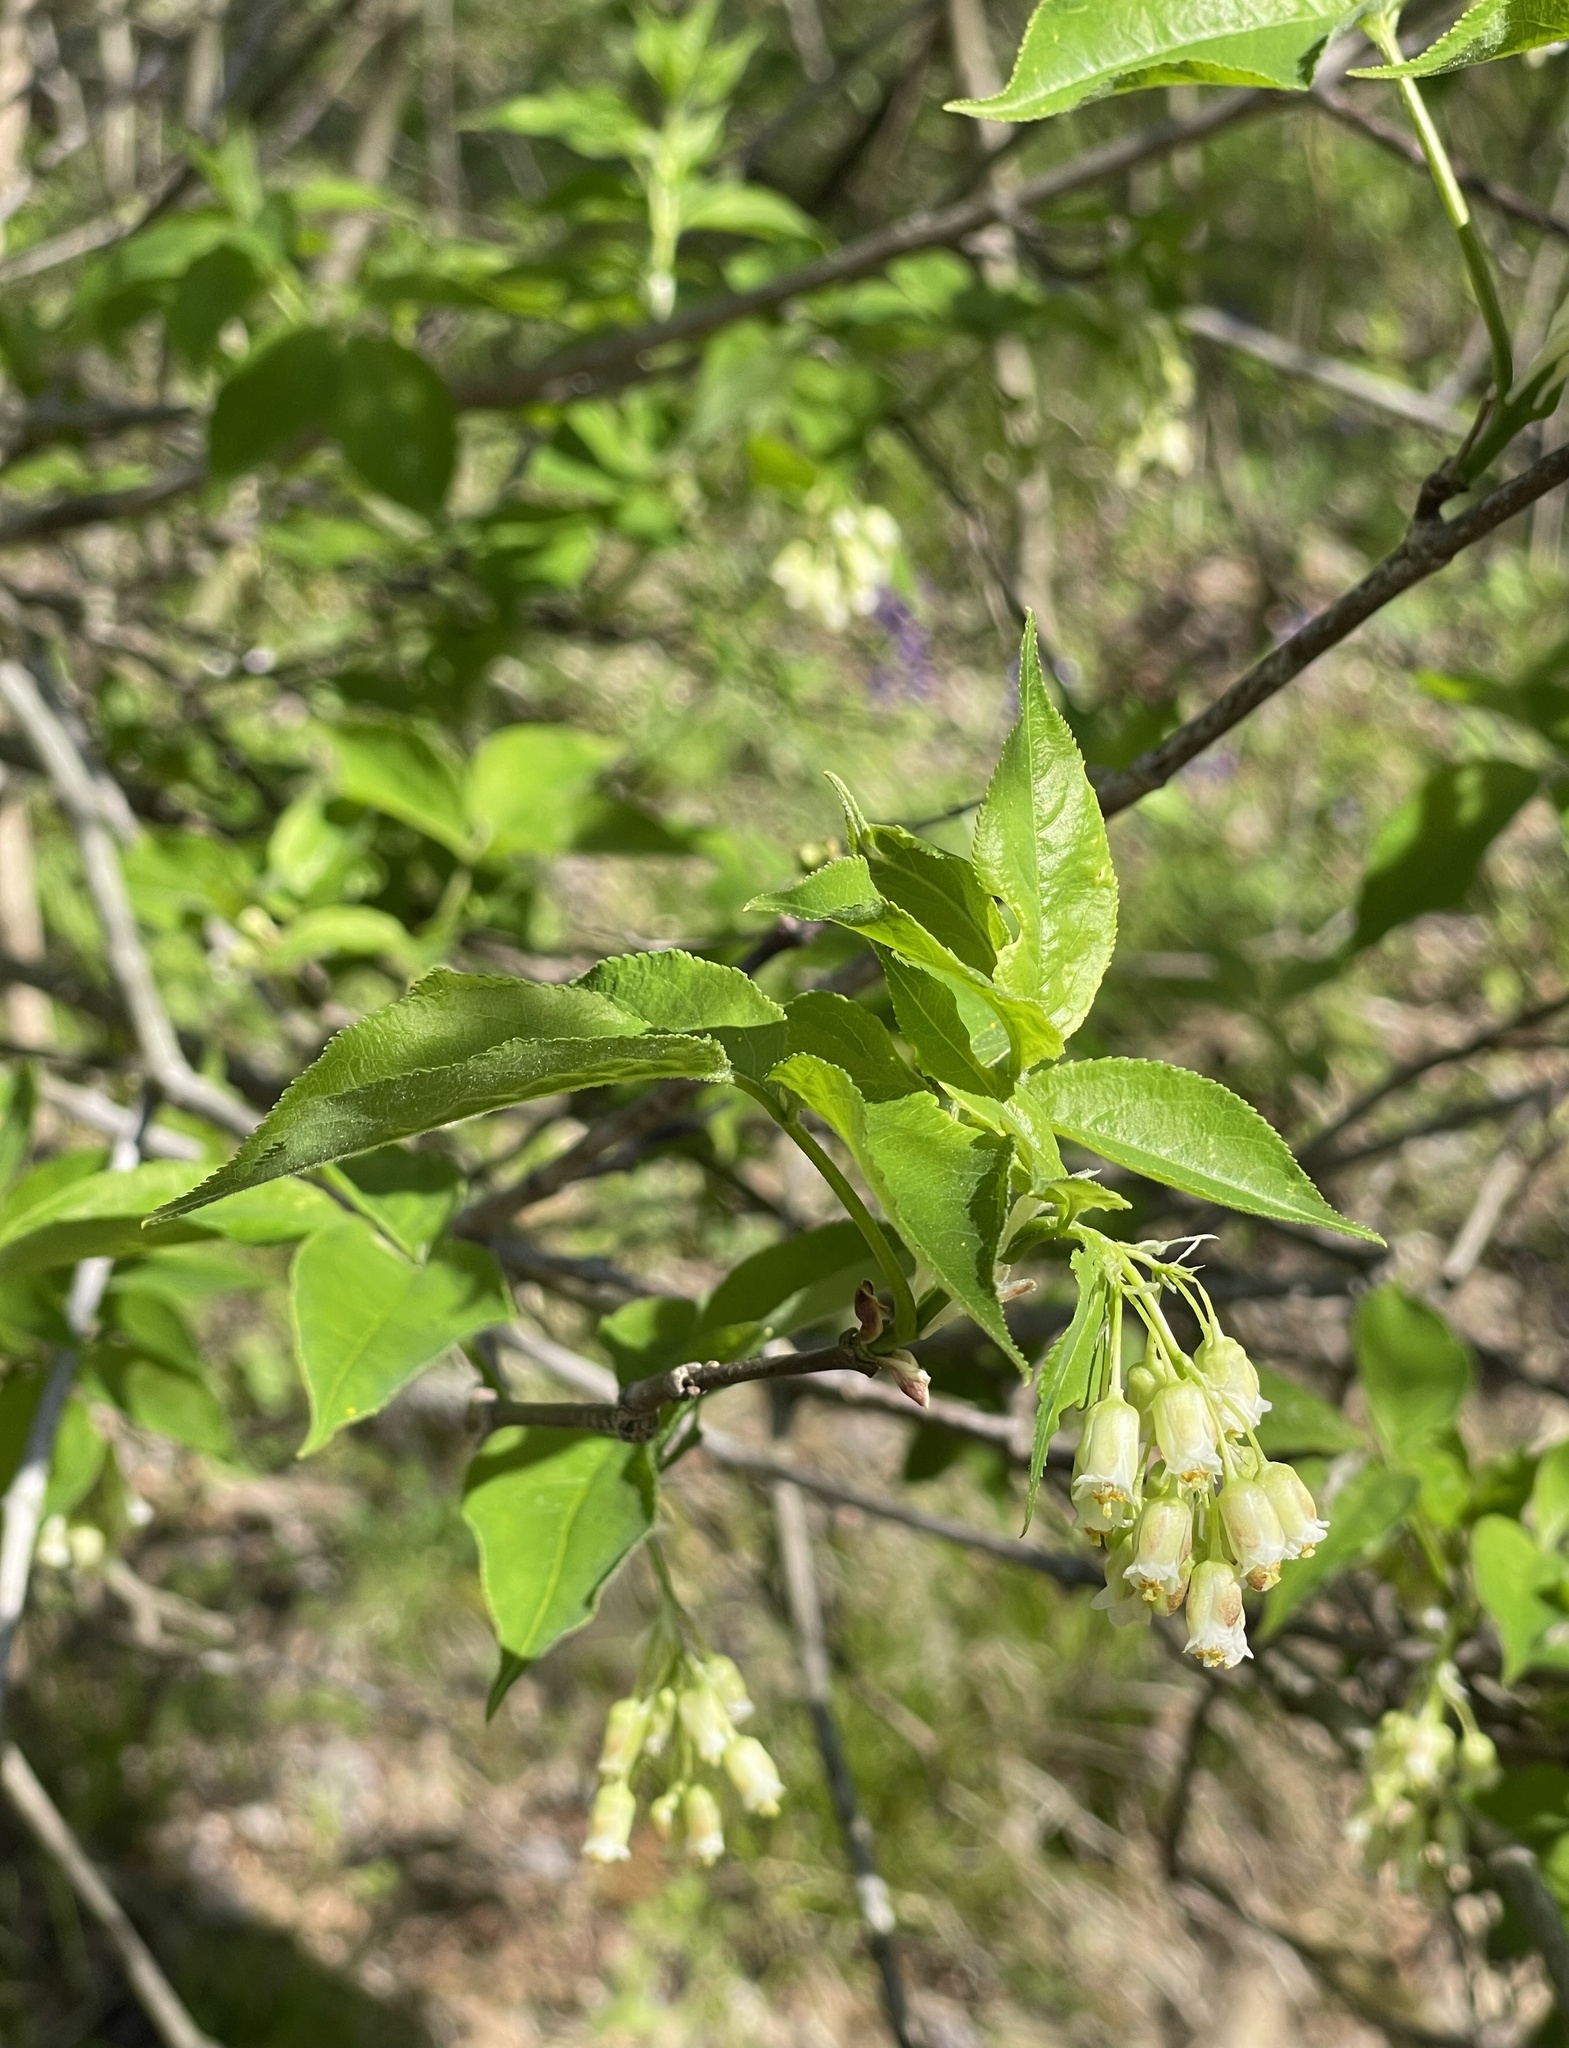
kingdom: Plantae
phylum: Tracheophyta
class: Magnoliopsida
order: Crossosomatales
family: Staphyleaceae
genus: Staphylea
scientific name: Staphylea trifolia
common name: American bladdernut
